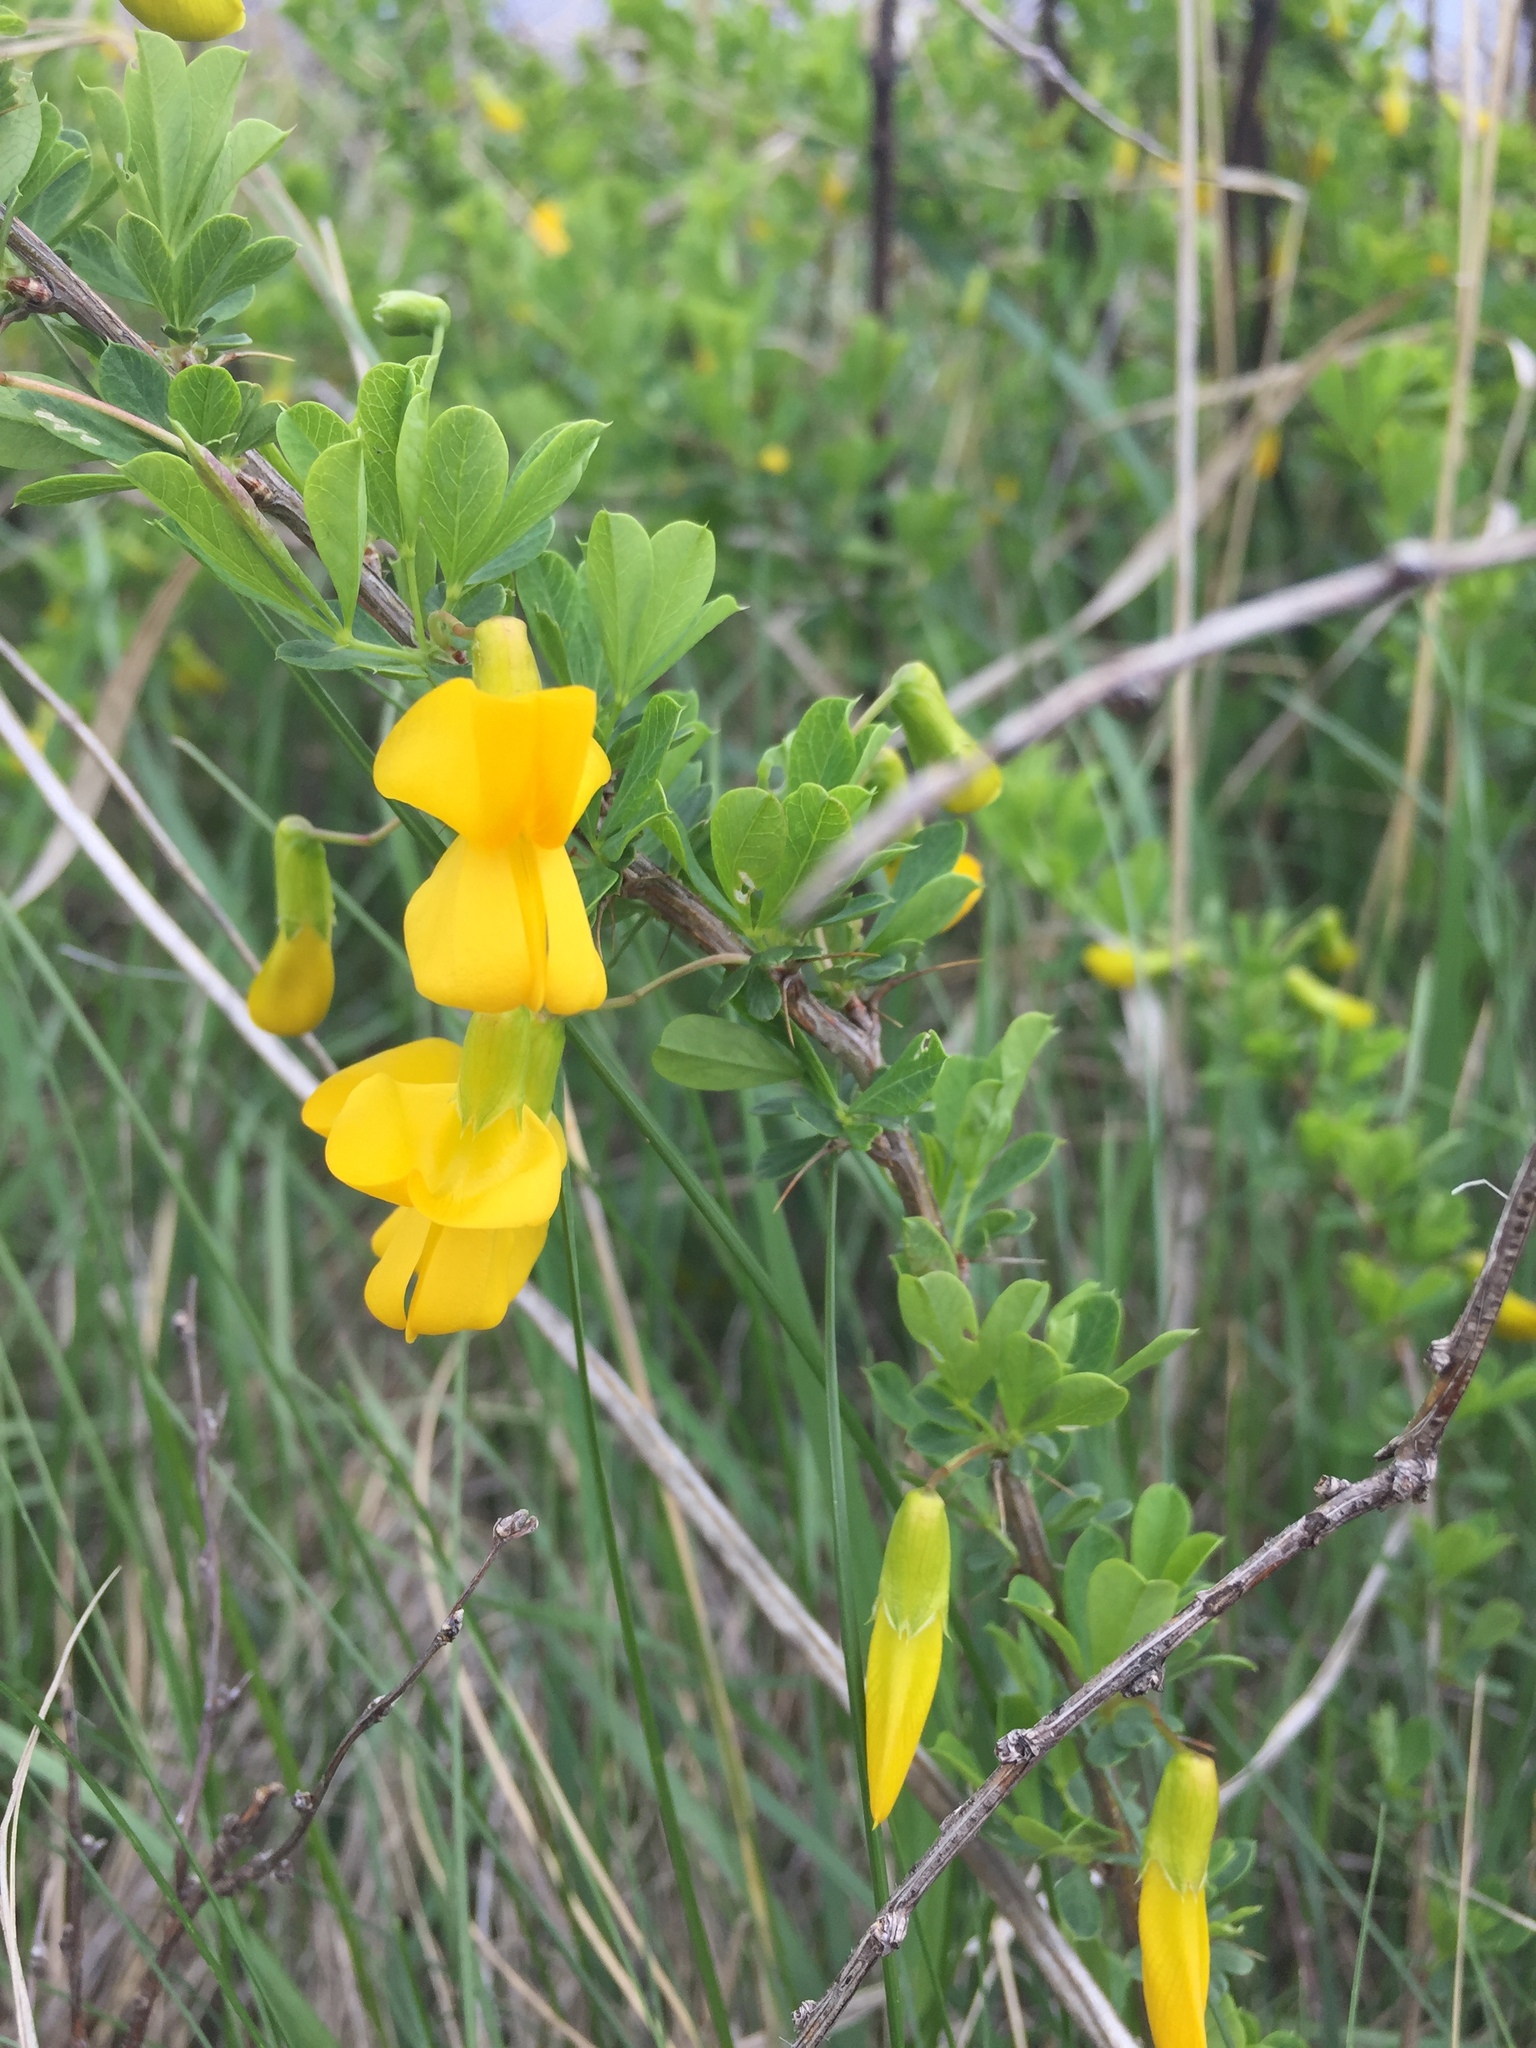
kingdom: Plantae
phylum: Tracheophyta
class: Magnoliopsida
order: Fabales
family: Fabaceae
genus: Caragana
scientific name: Caragana frutex
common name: Russian peashrub
